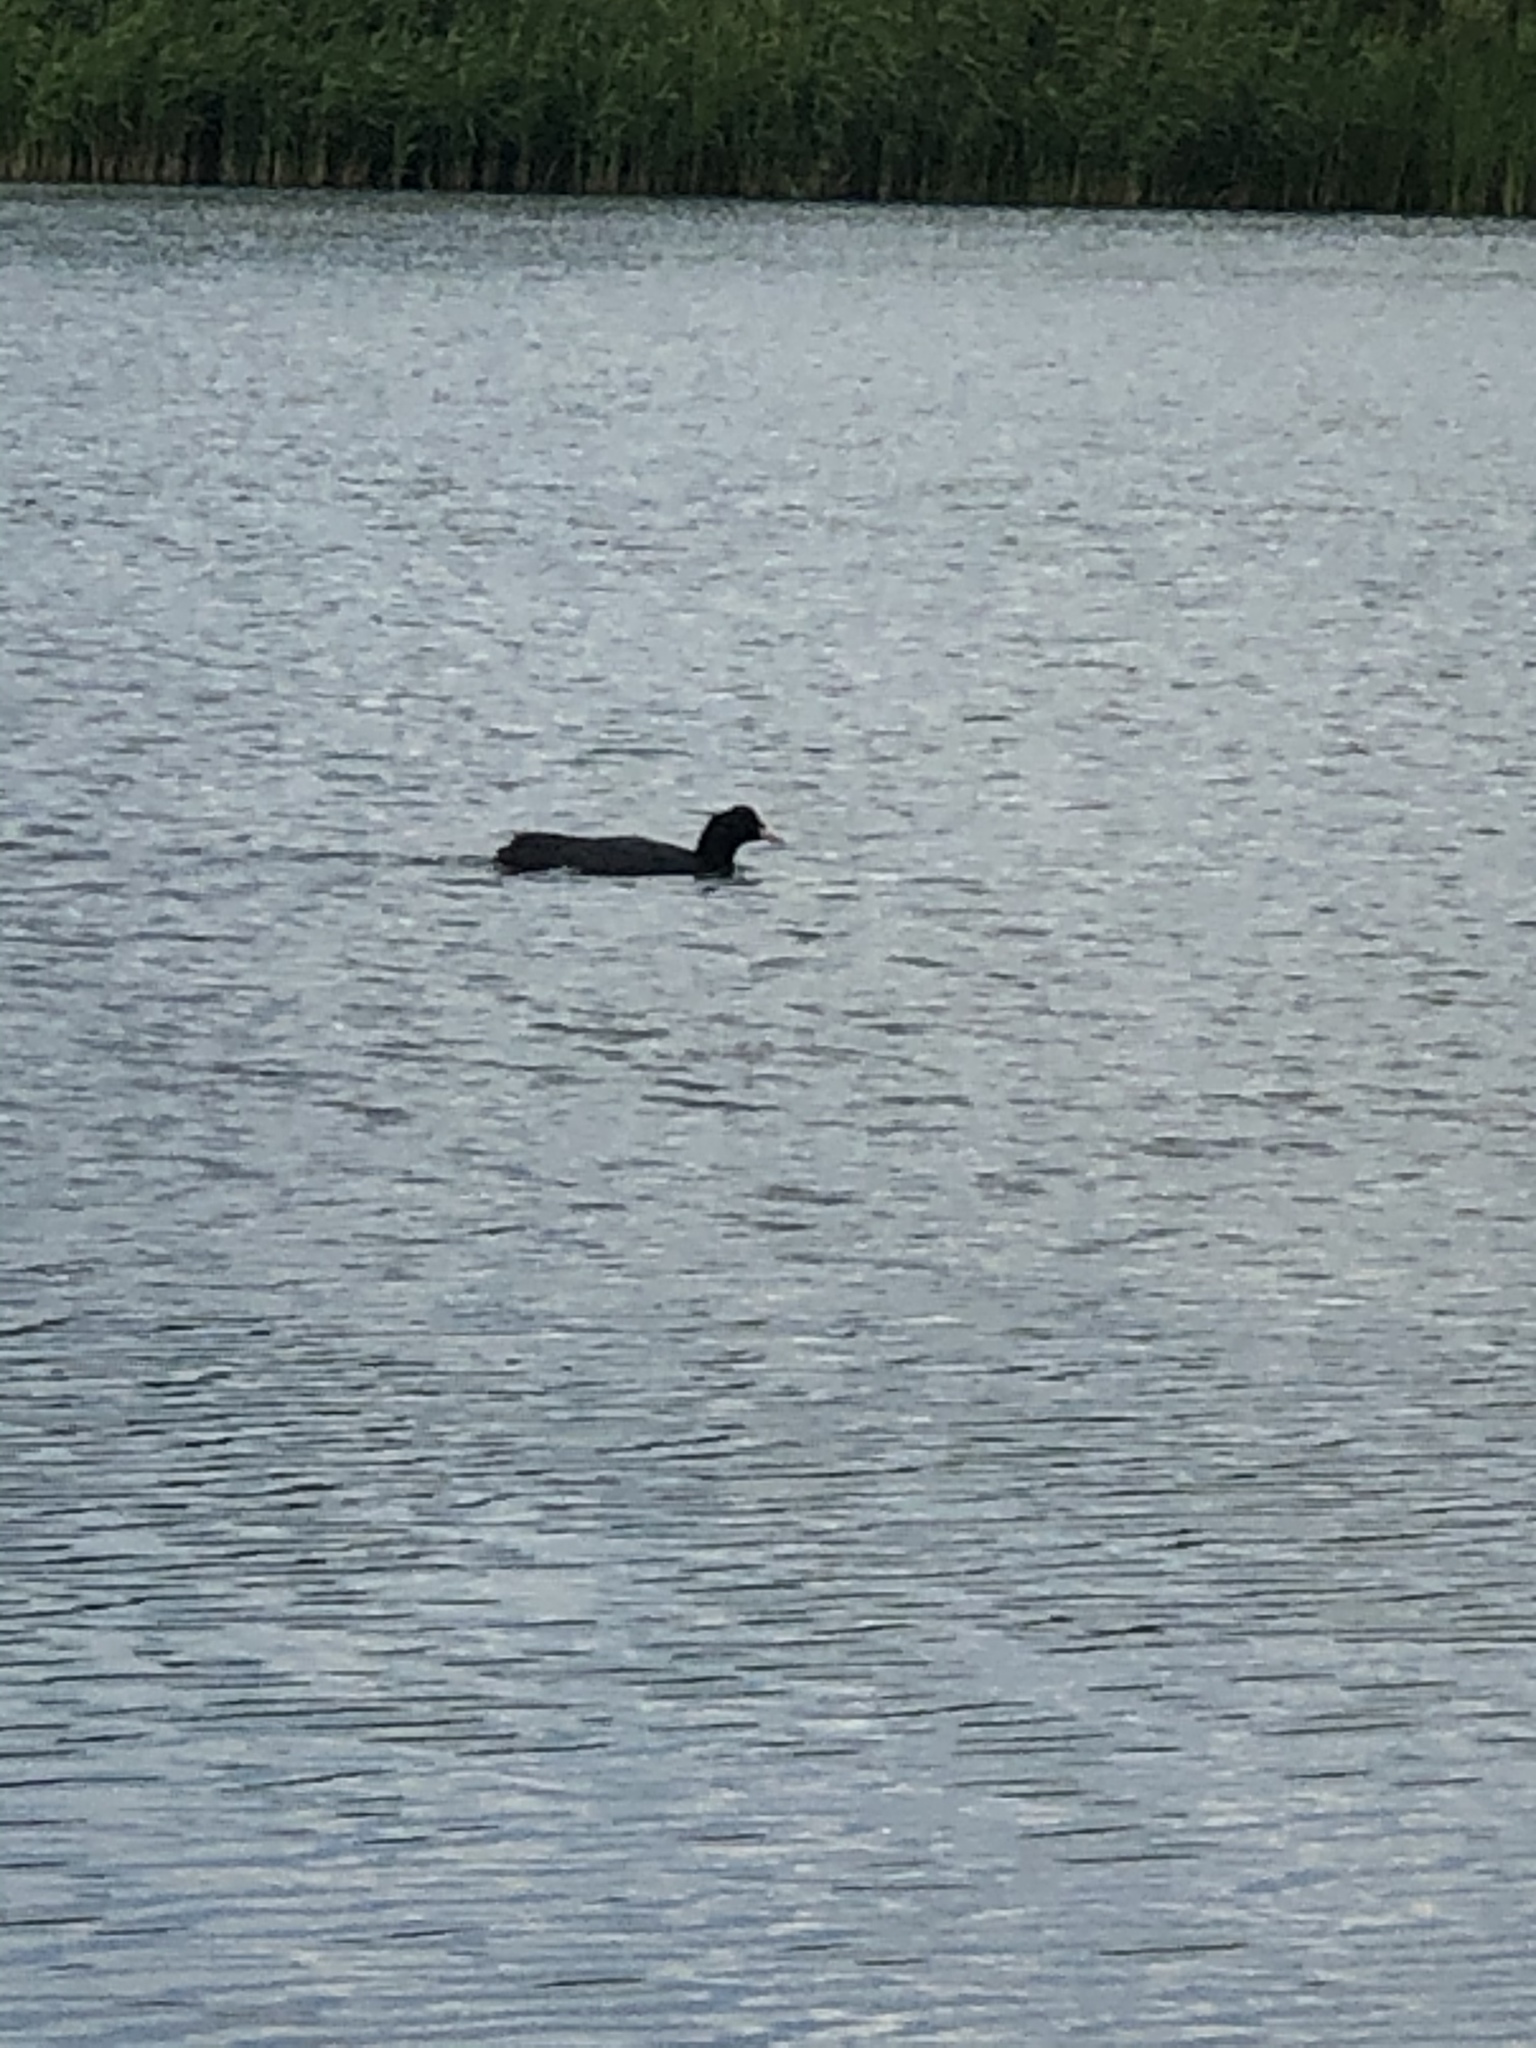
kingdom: Animalia
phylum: Chordata
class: Aves
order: Gruiformes
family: Rallidae
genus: Fulica
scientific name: Fulica atra
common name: Eurasian coot
